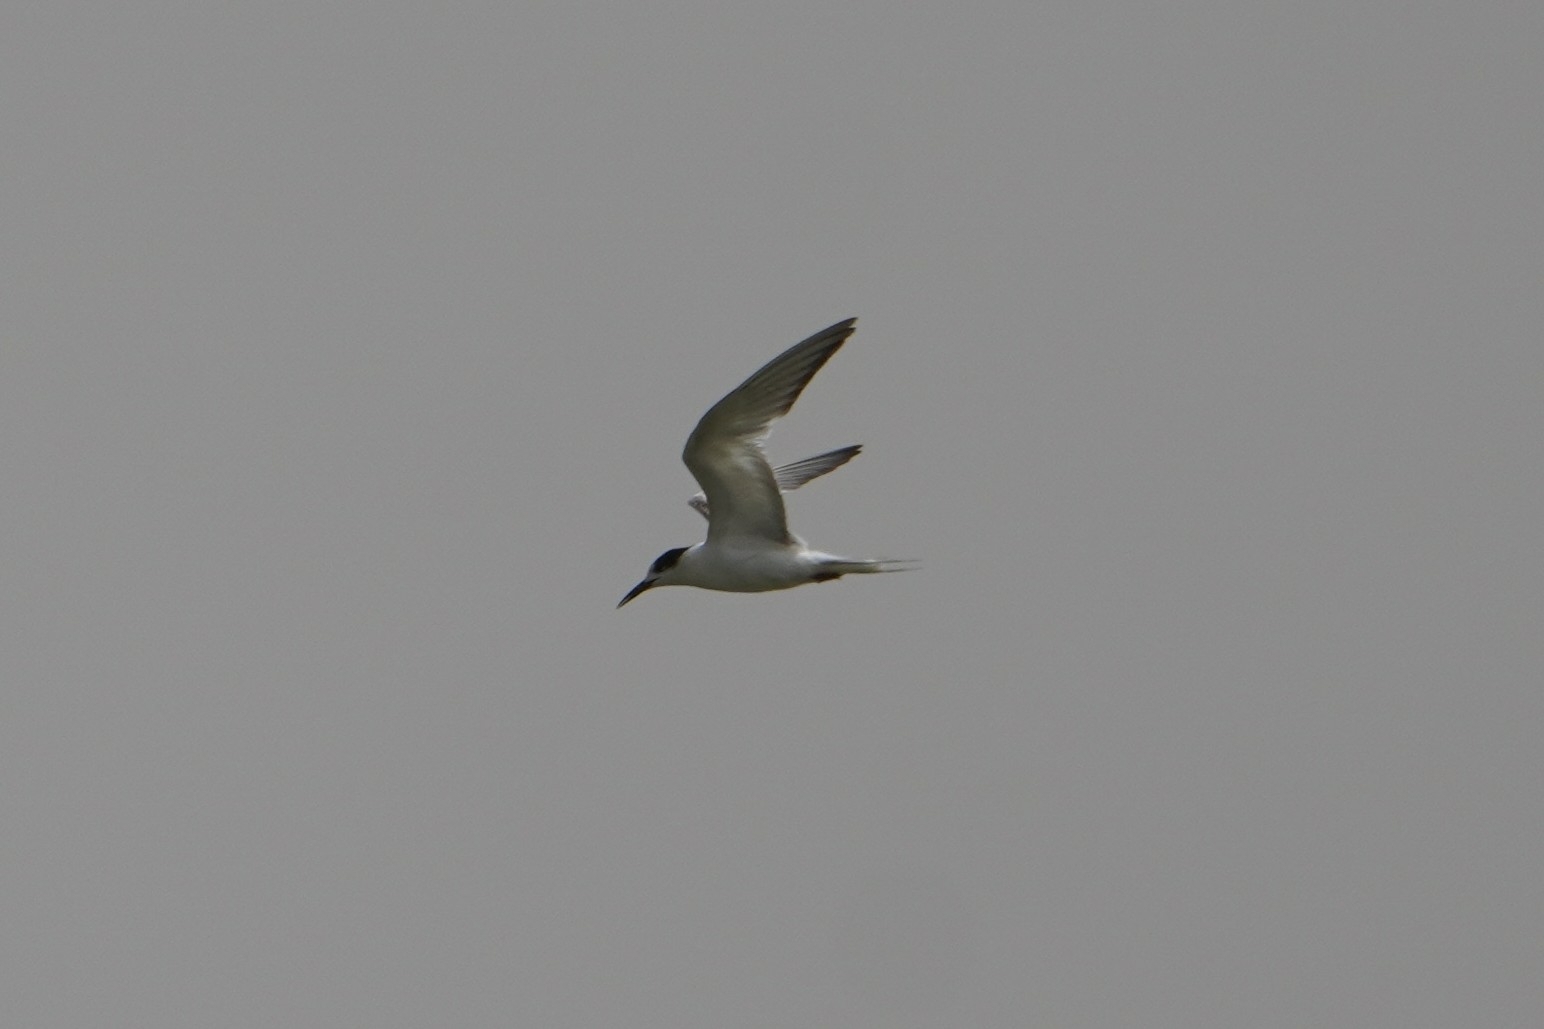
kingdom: Animalia
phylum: Chordata
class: Aves
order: Charadriiformes
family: Laridae
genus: Thalasseus
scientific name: Thalasseus sandvicensis
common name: Sandwich tern
